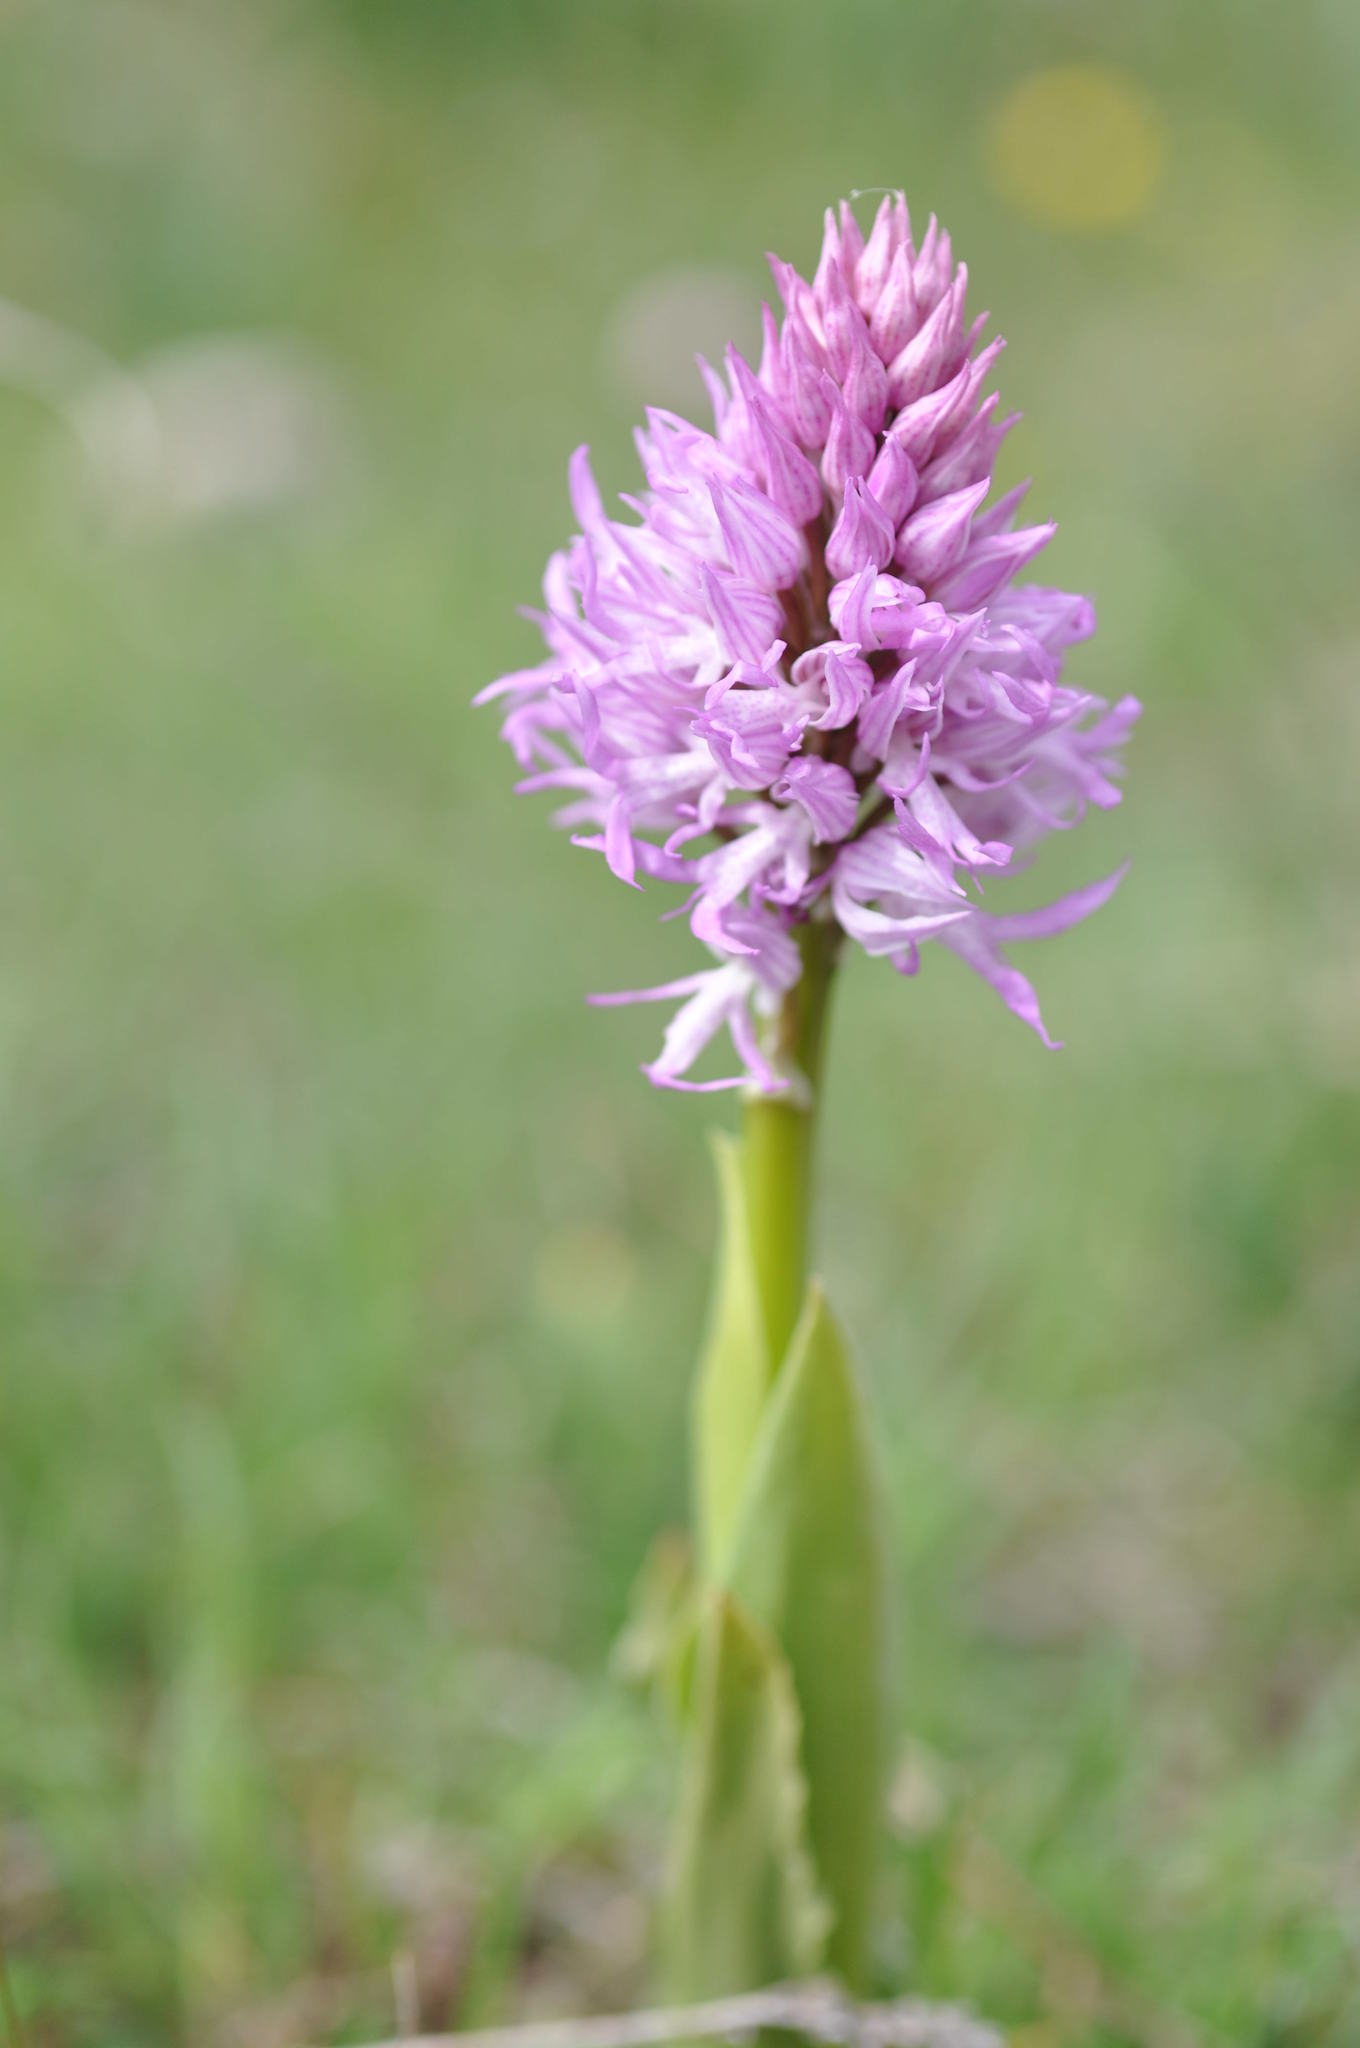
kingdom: Plantae
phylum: Tracheophyta
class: Liliopsida
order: Asparagales
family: Orchidaceae
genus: Orchis
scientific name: Orchis italica
